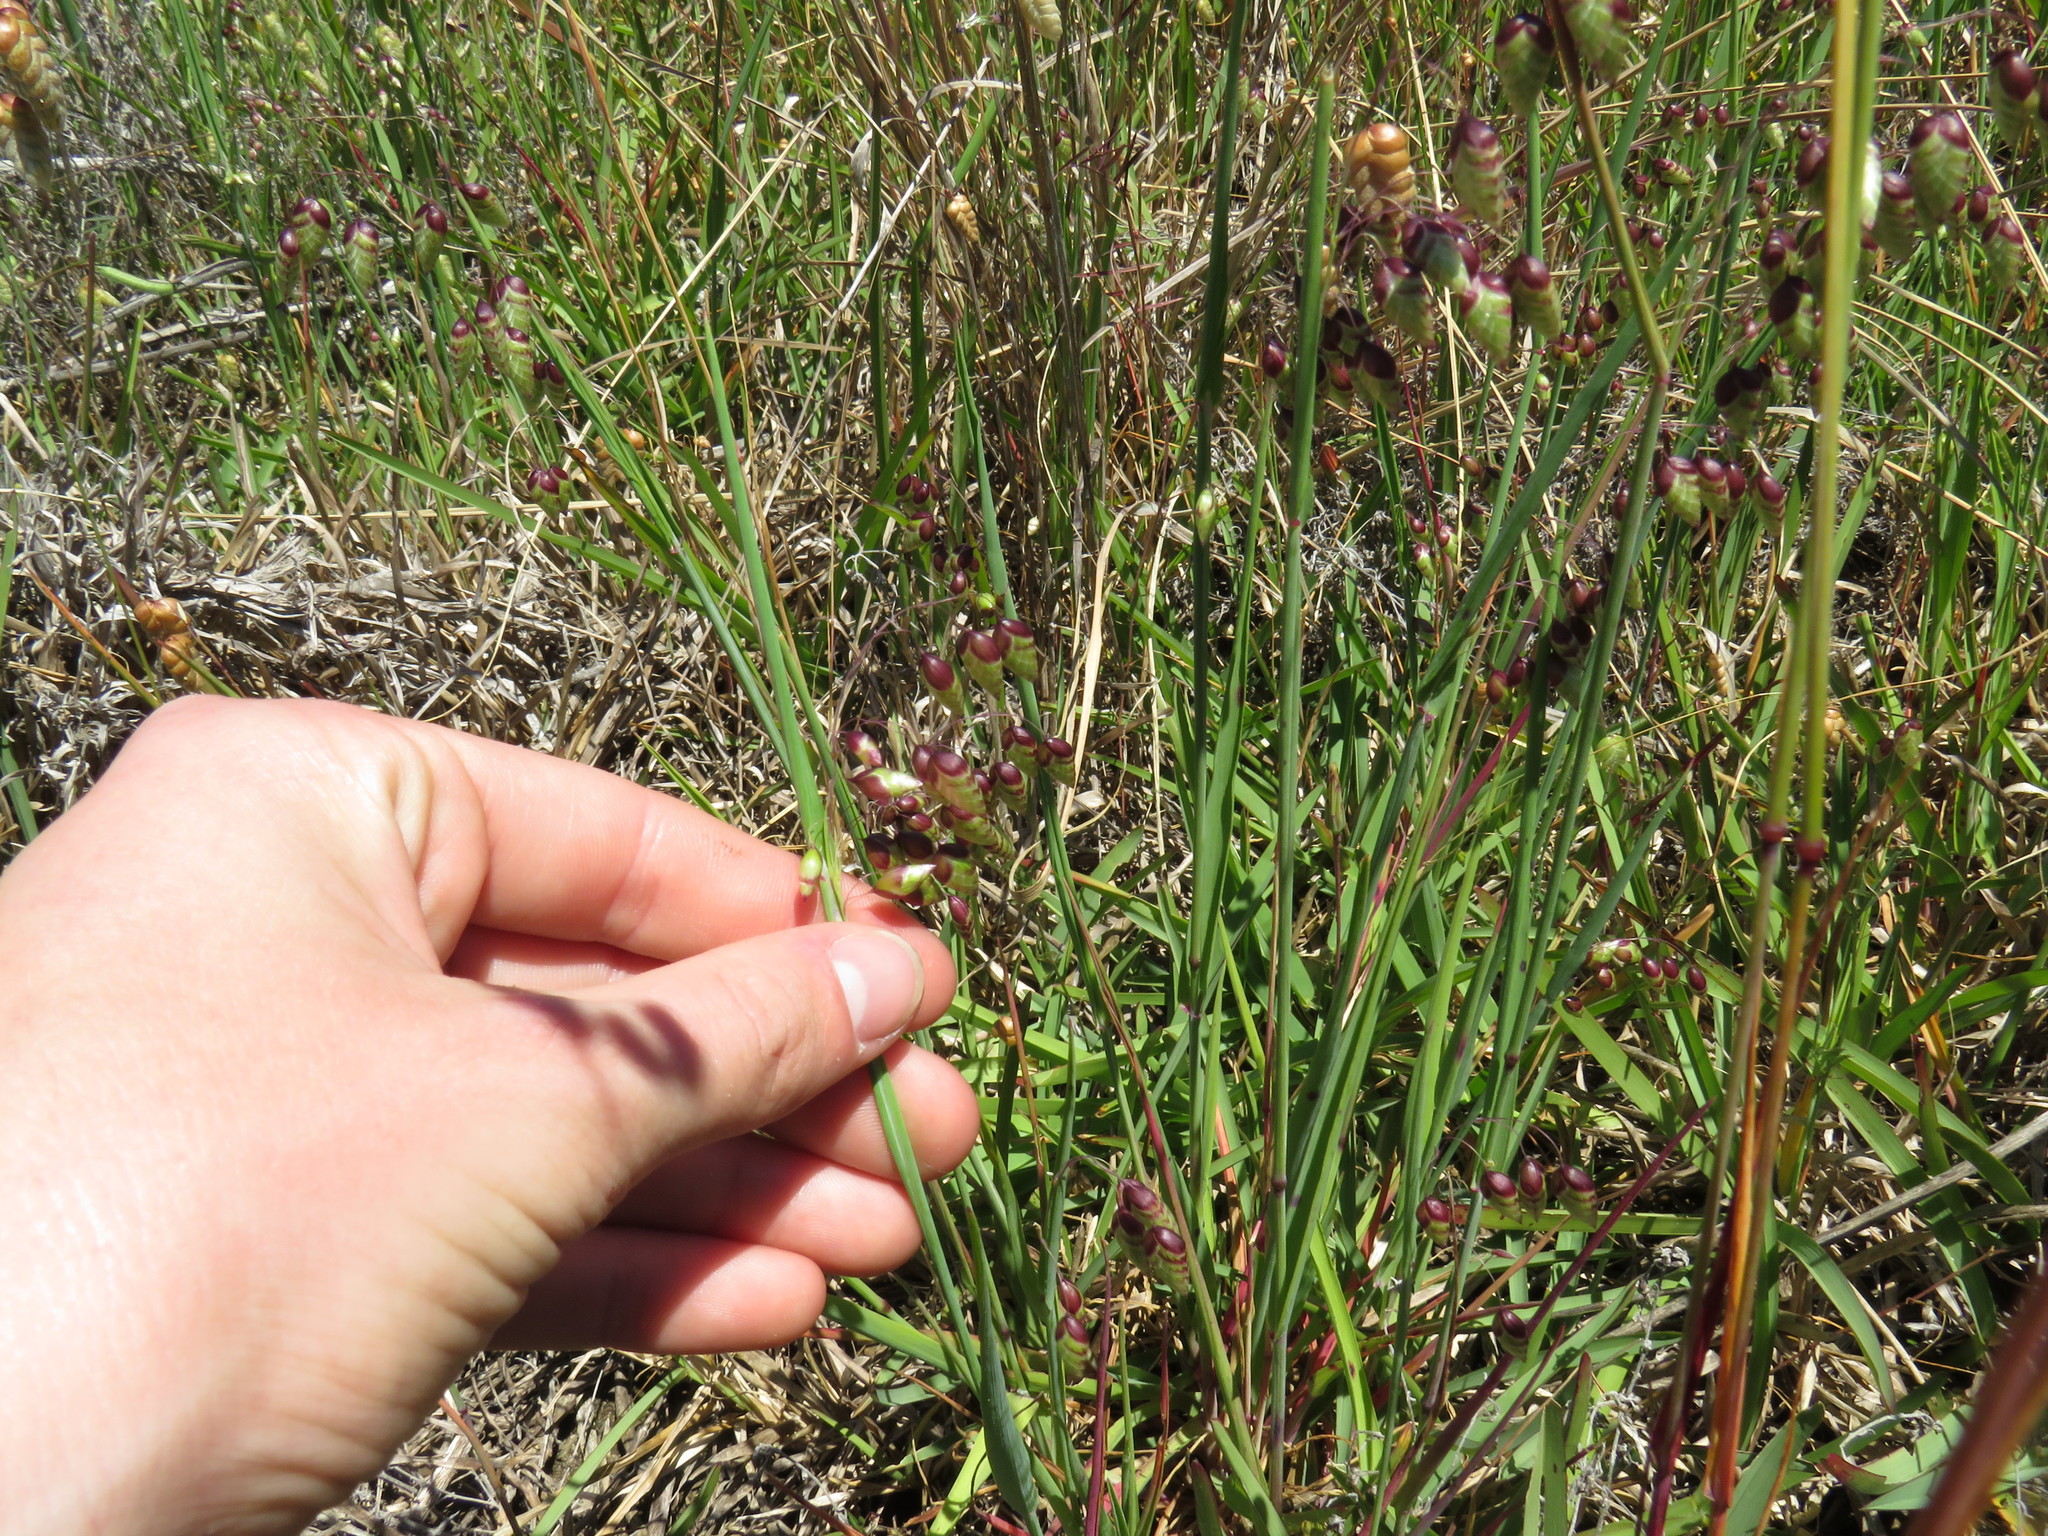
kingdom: Plantae
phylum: Tracheophyta
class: Liliopsida
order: Poales
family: Poaceae
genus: Briza
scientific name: Briza maxima
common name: Big quakinggrass
